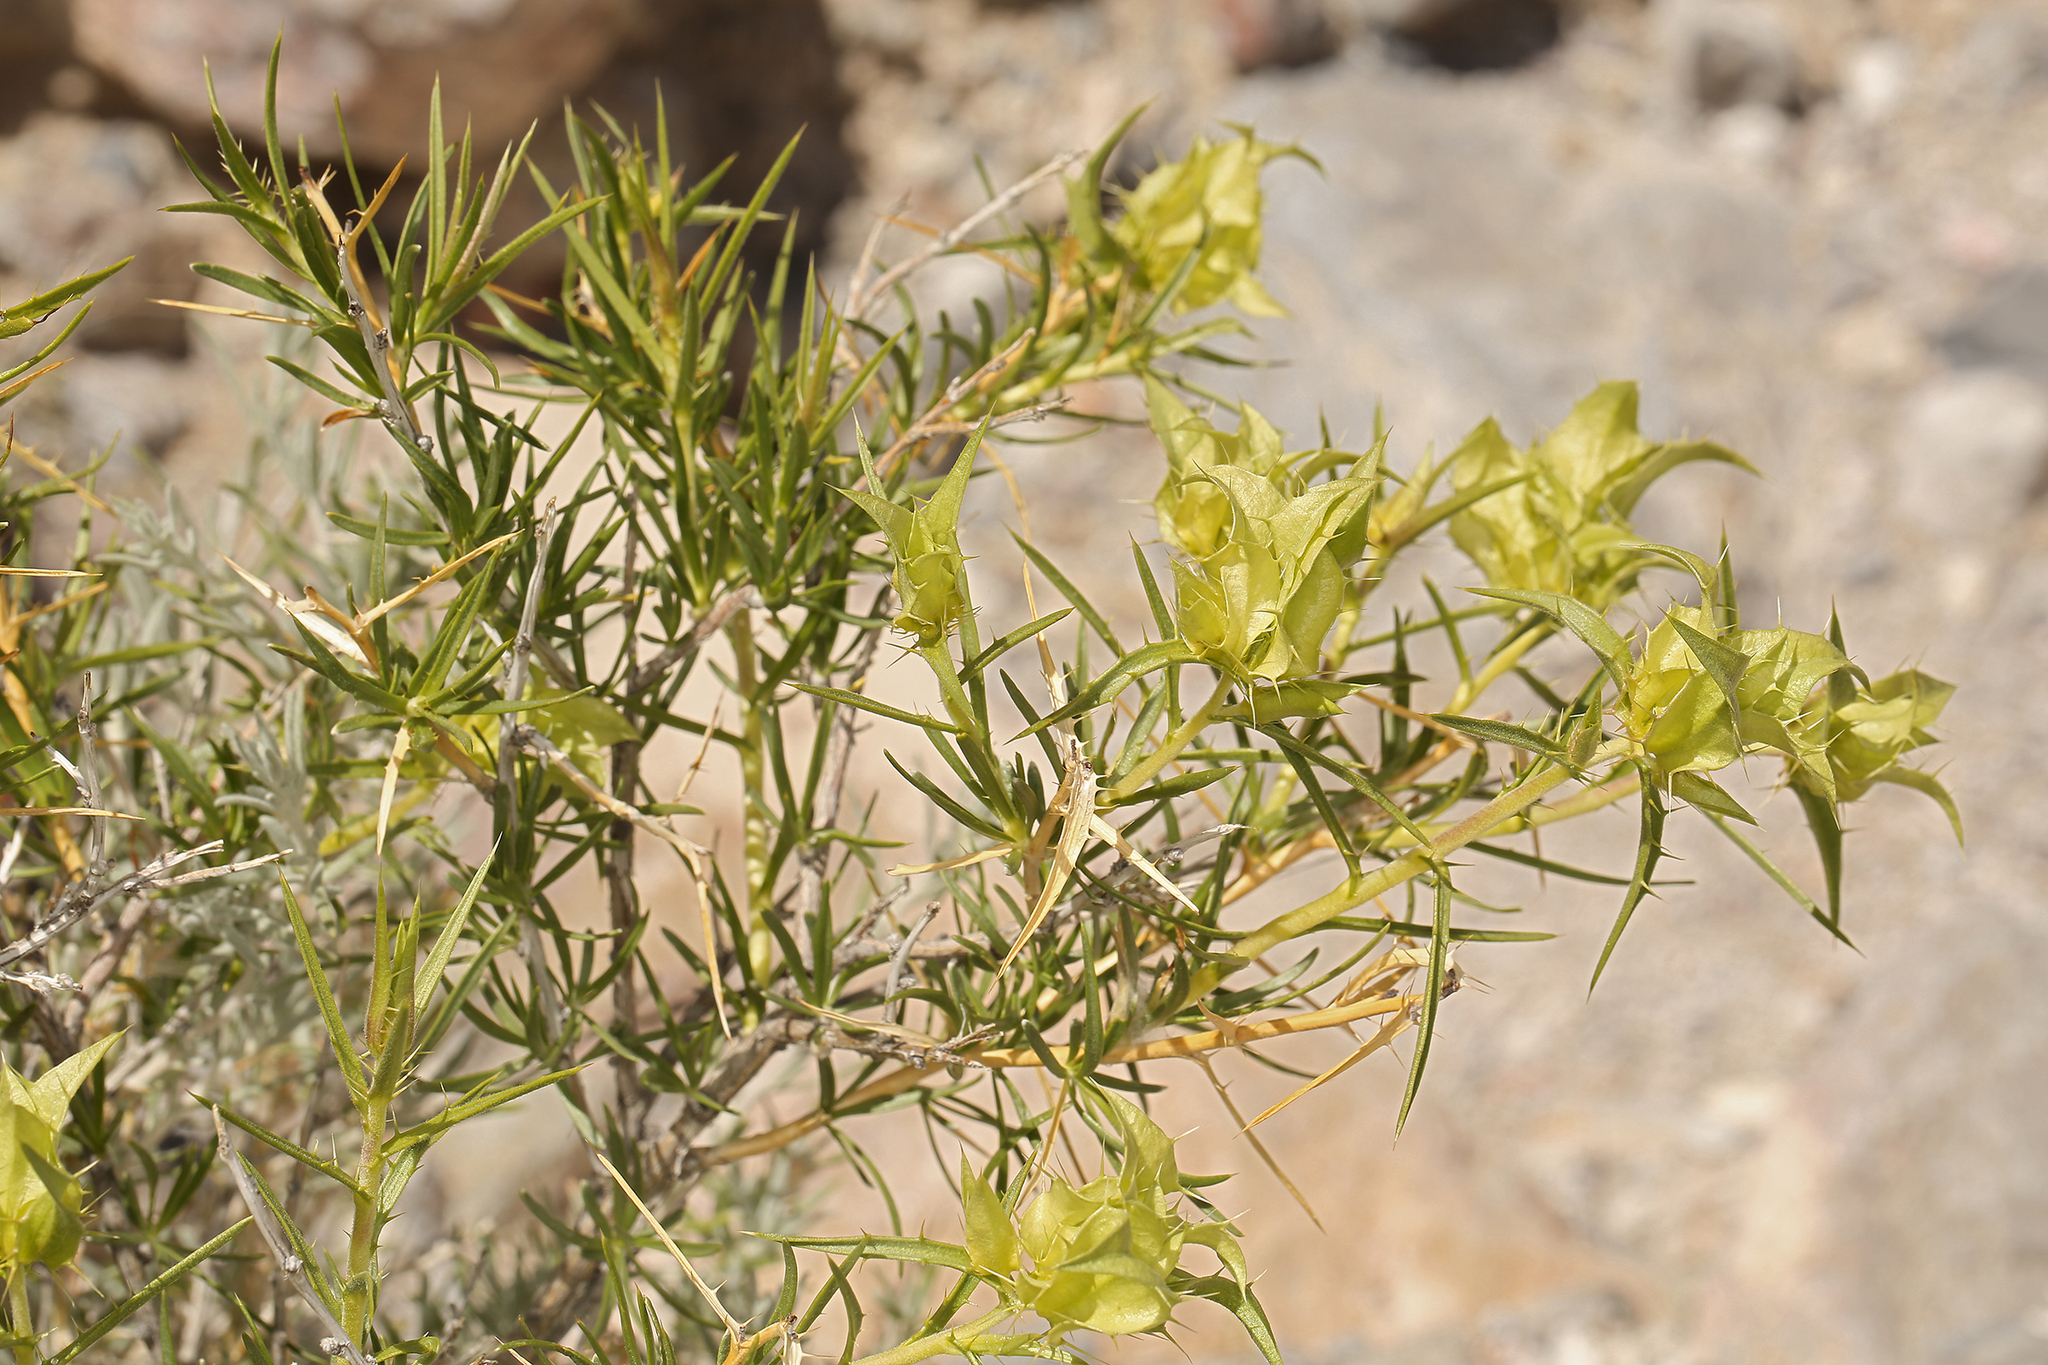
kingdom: Plantae
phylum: Tracheophyta
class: Magnoliopsida
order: Asterales
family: Asteraceae
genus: Hecastocleis
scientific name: Hecastocleis shockleyi
